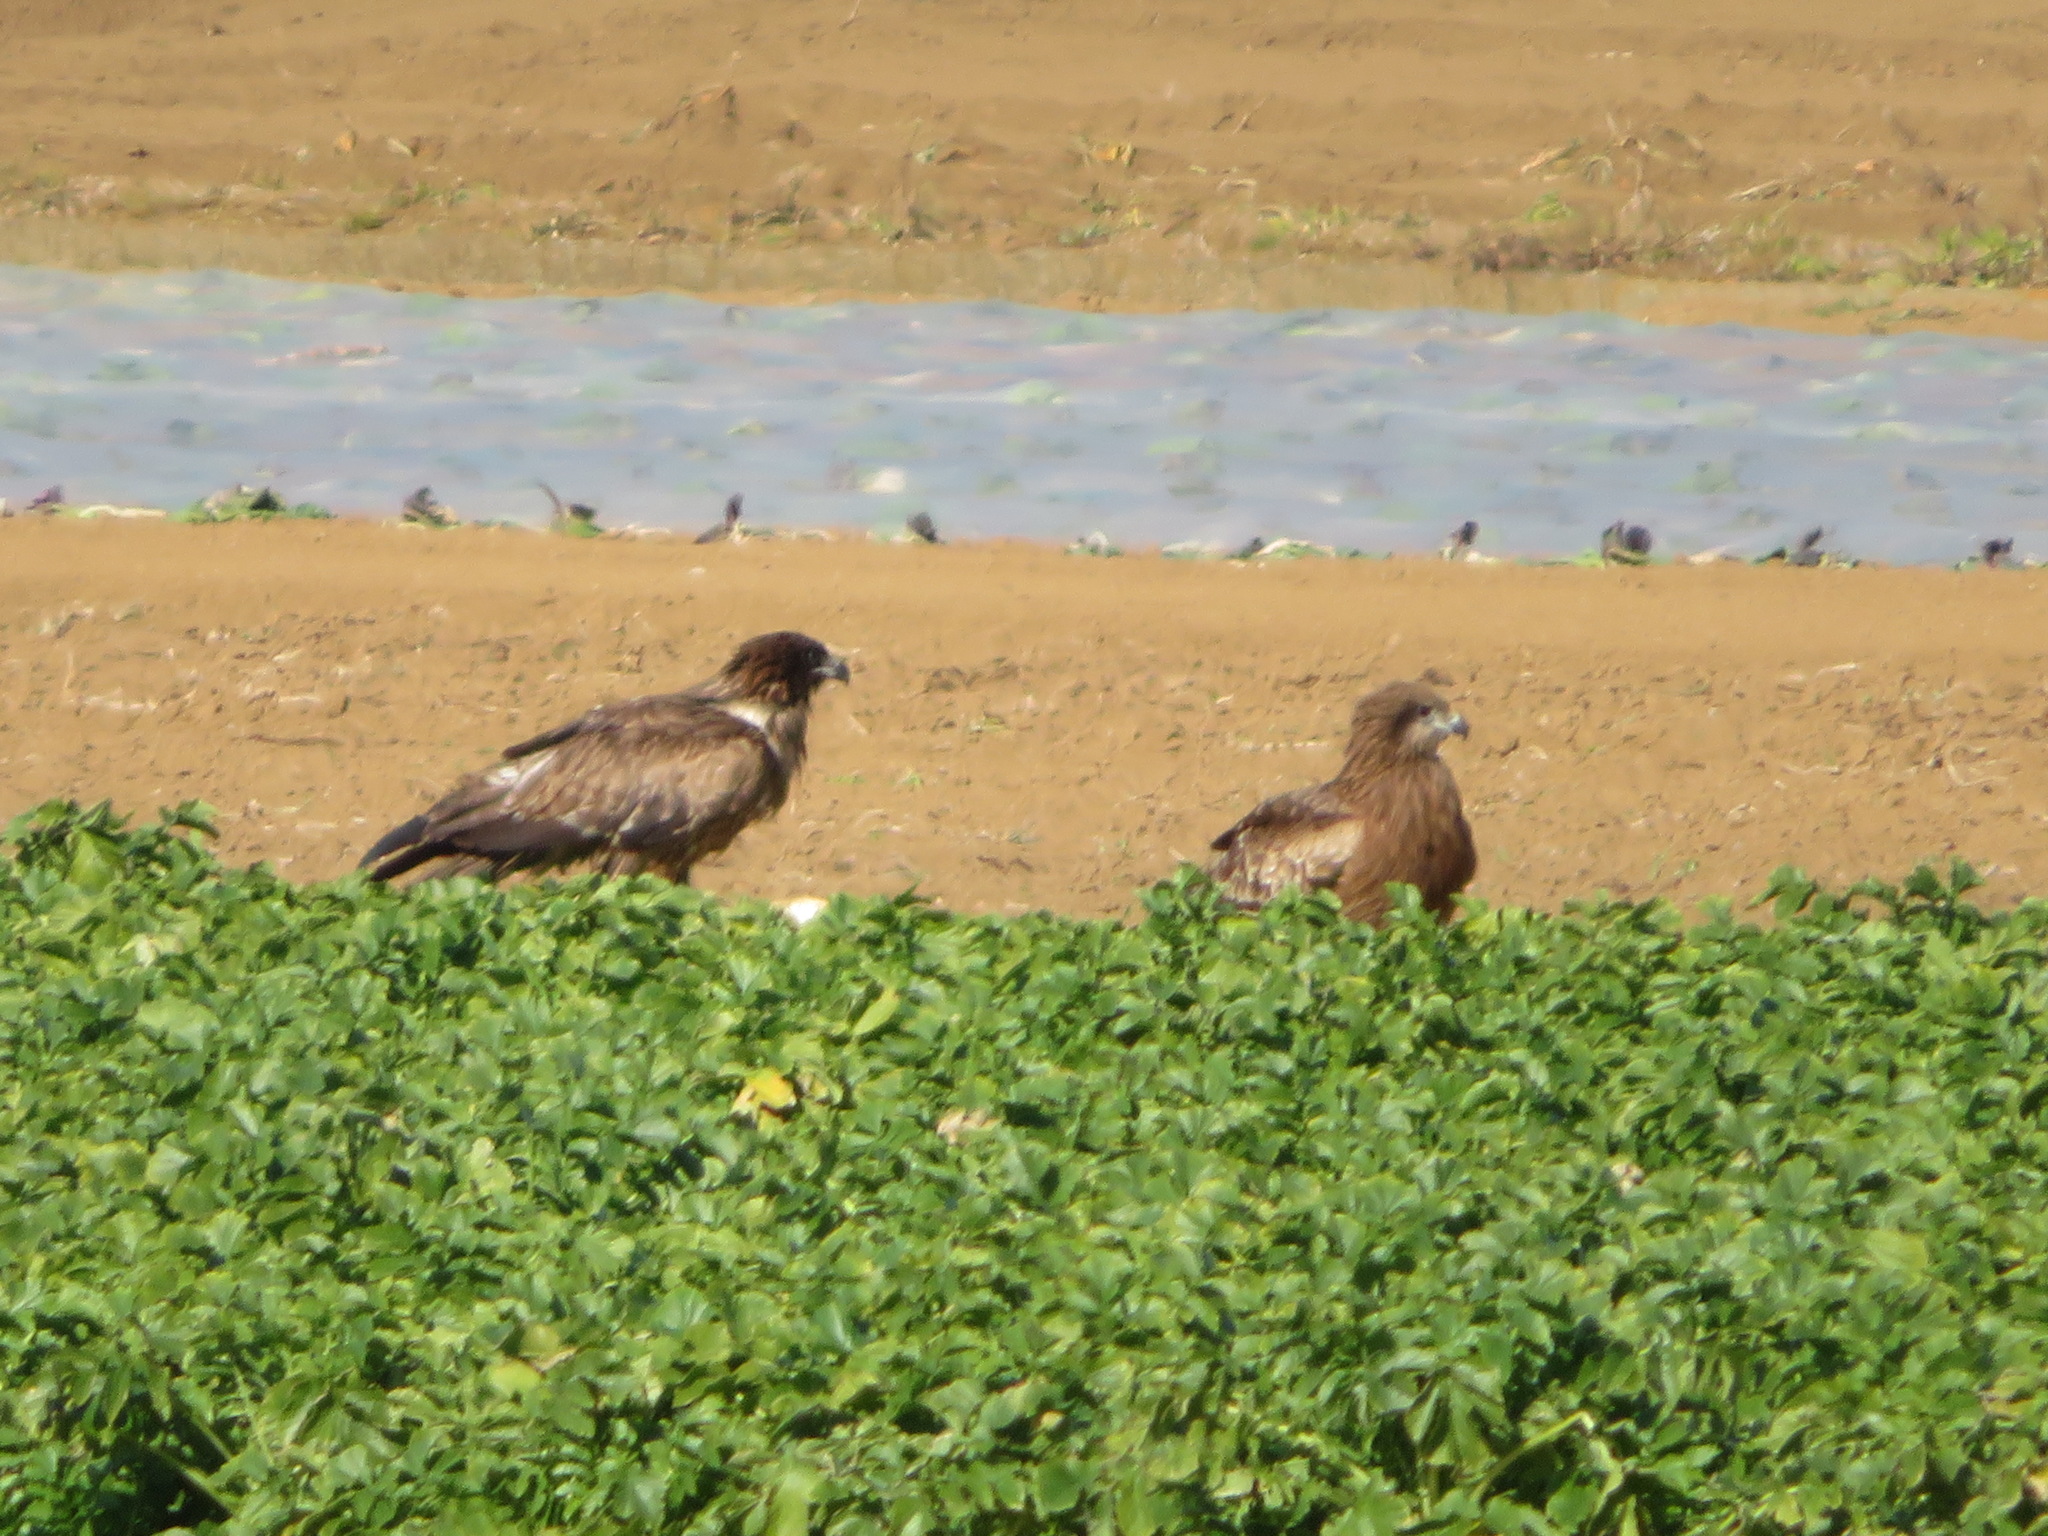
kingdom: Animalia
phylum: Chordata
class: Aves
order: Accipitriformes
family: Accipitridae
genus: Milvus
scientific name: Milvus migrans
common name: Black kite
